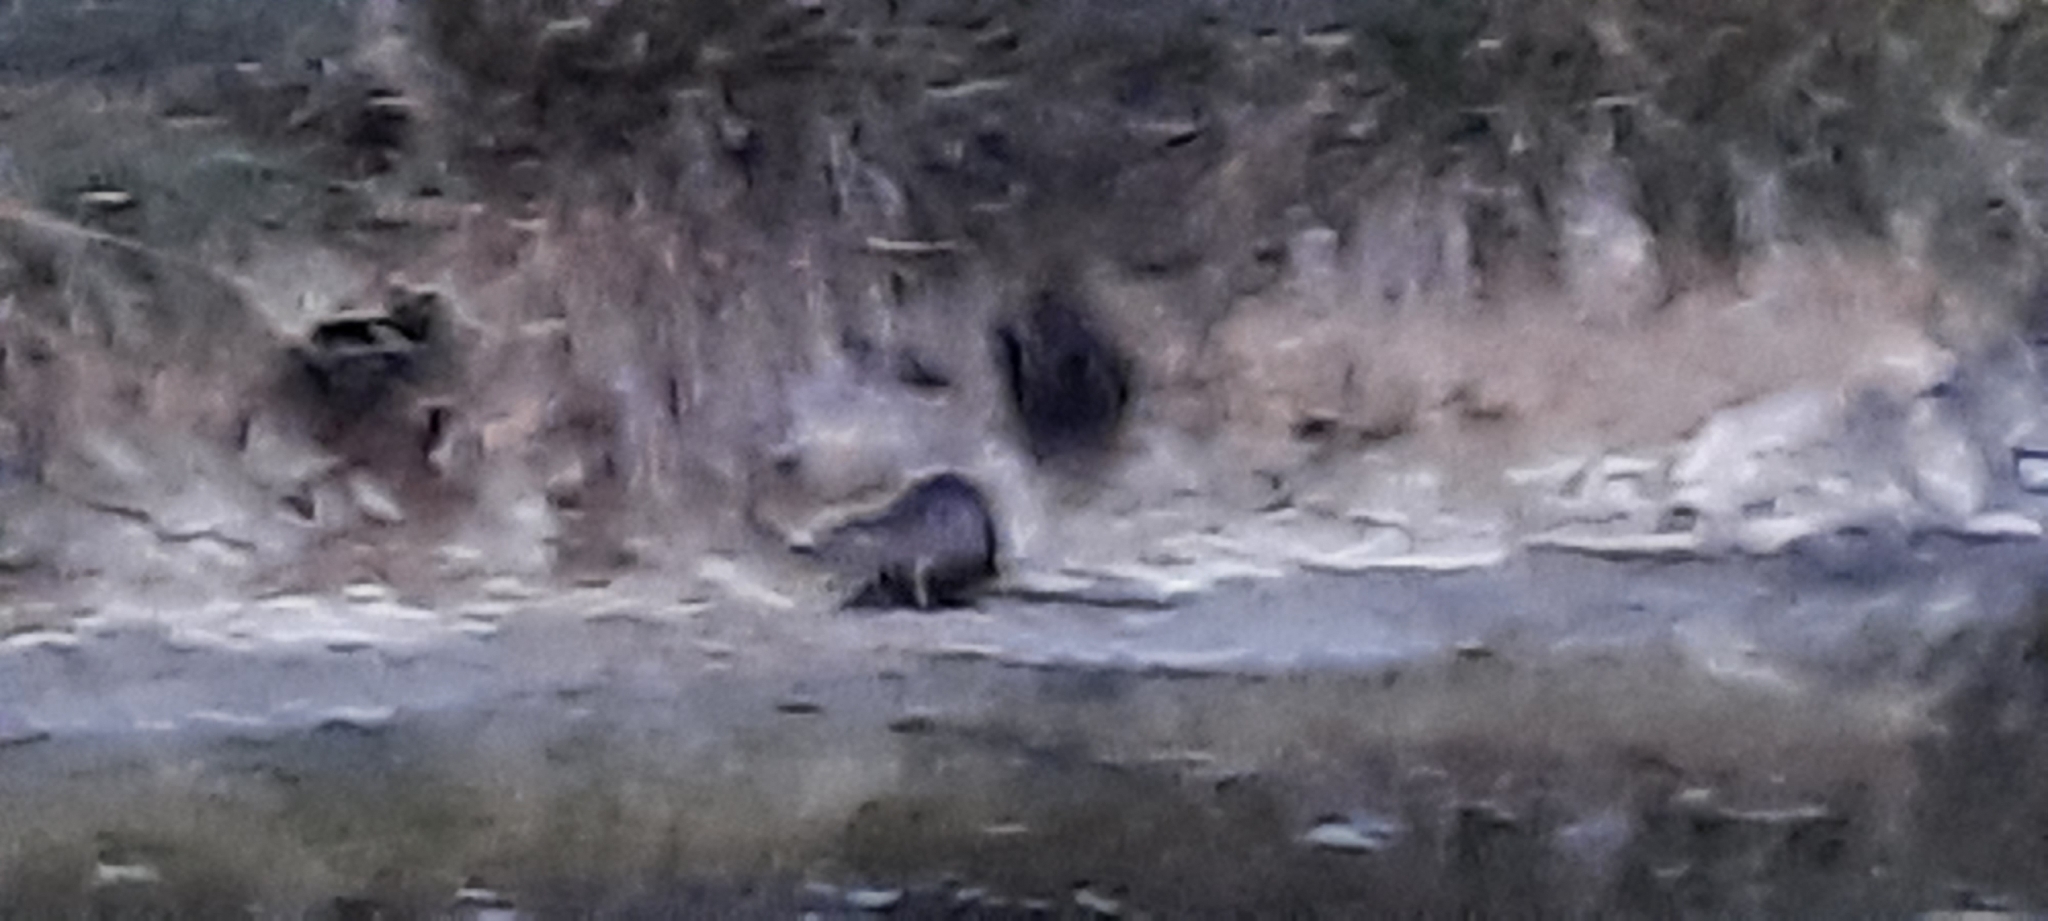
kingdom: Animalia
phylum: Chordata
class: Mammalia
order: Rodentia
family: Myocastoridae
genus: Myocastor
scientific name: Myocastor coypus
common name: Coypu
